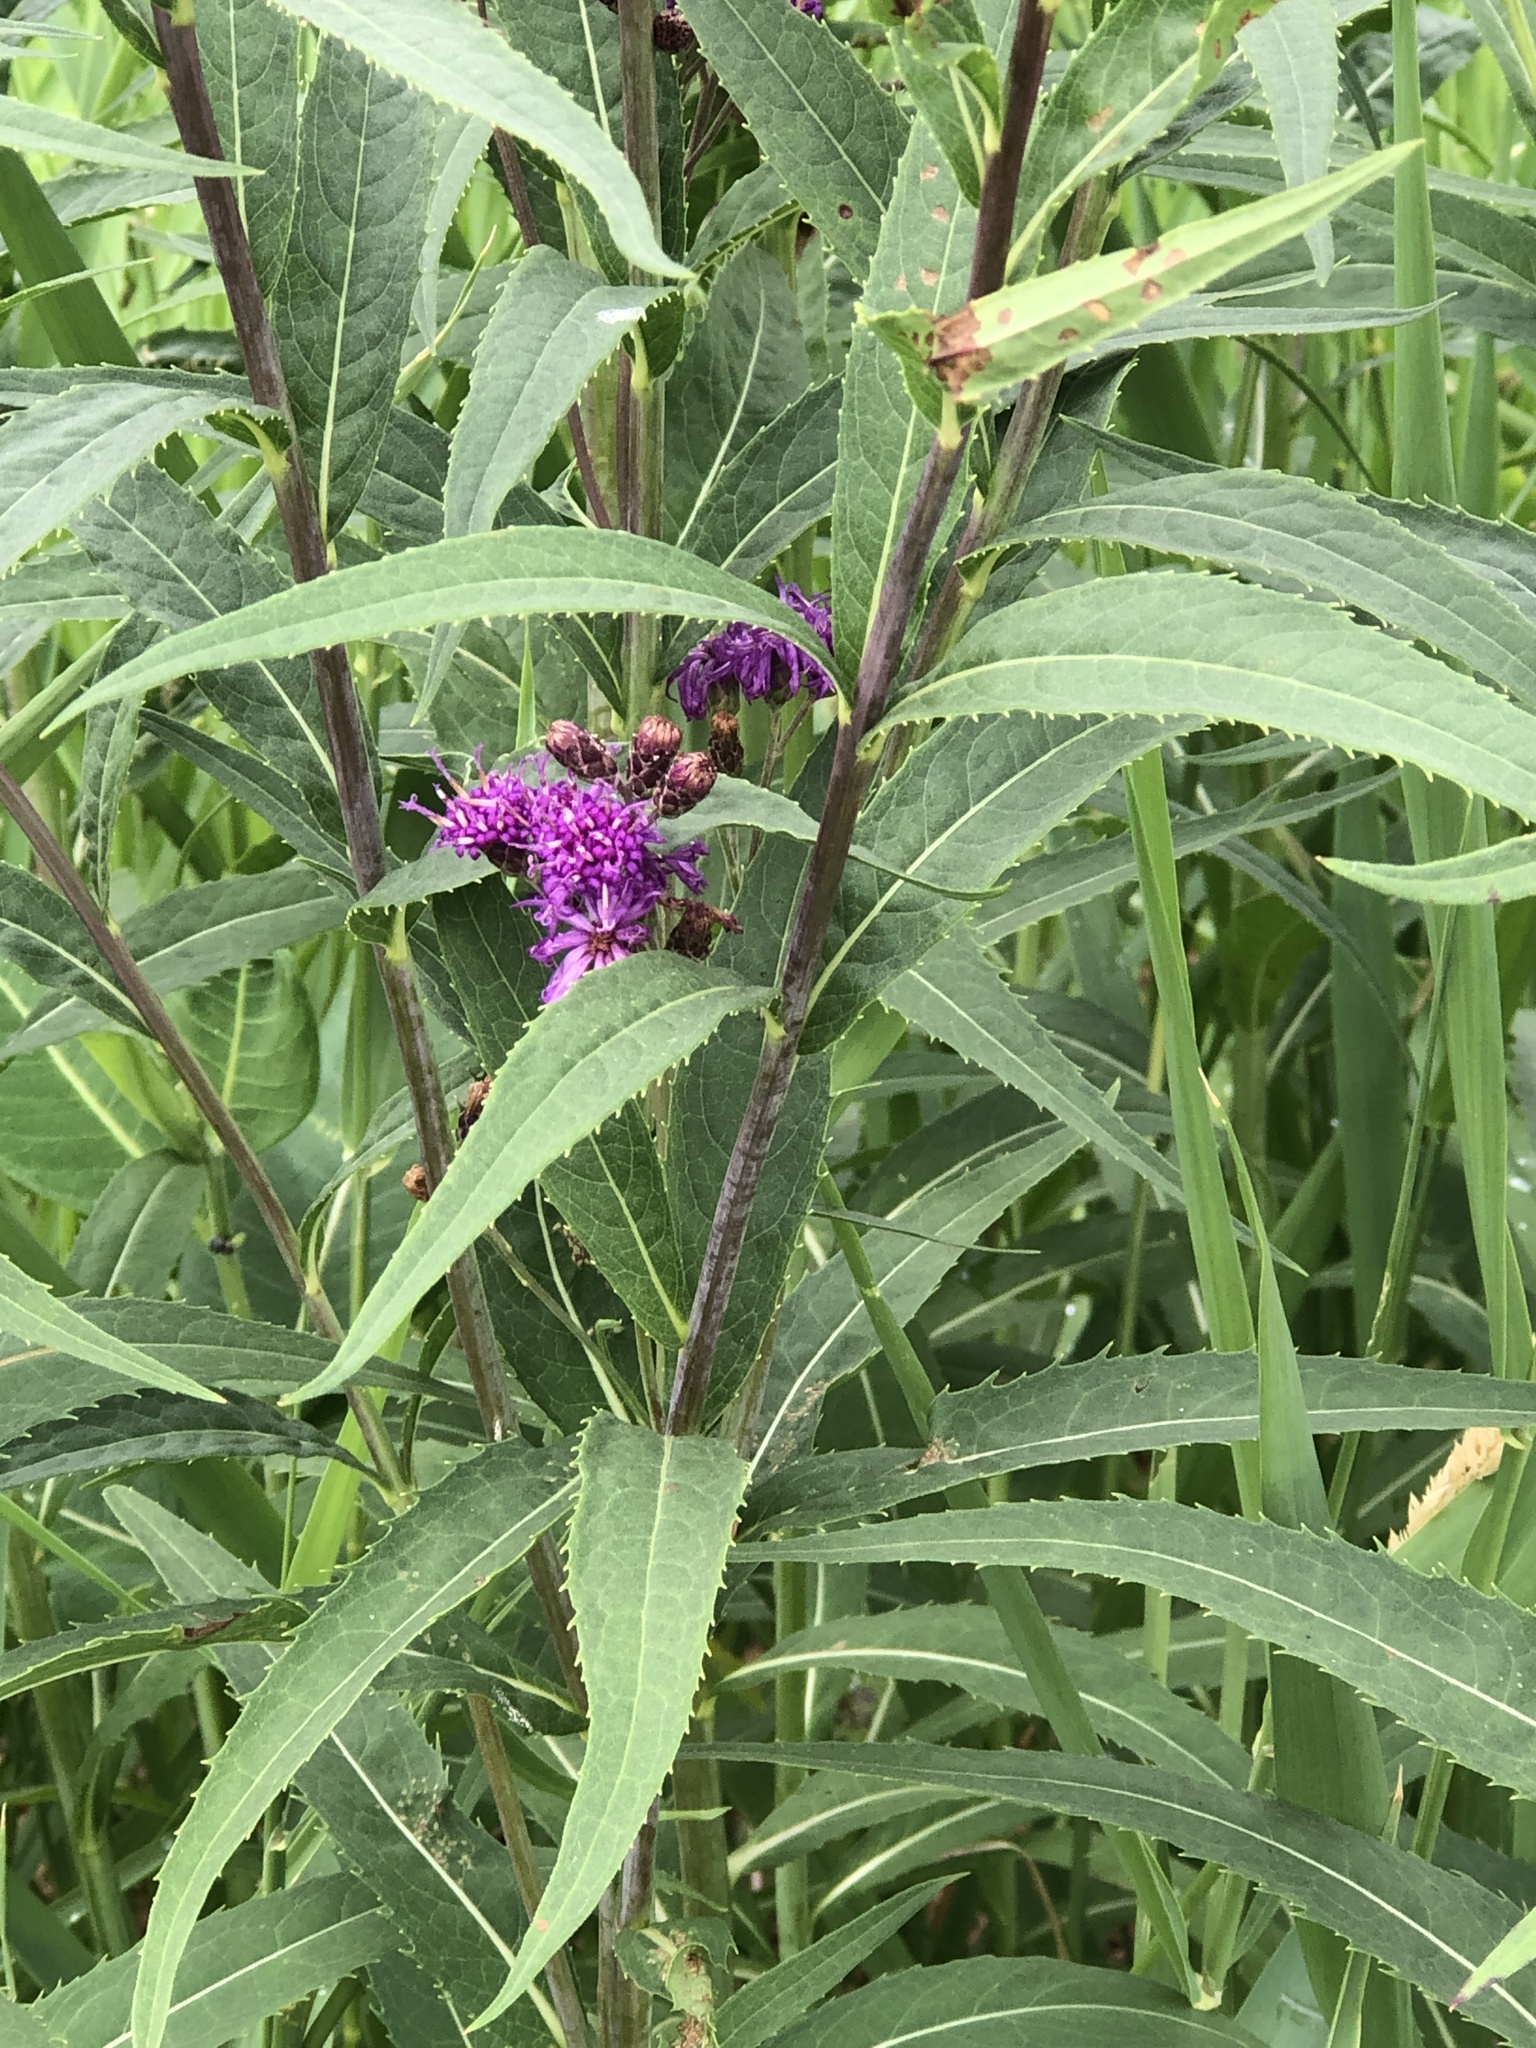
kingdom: Plantae
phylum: Tracheophyta
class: Magnoliopsida
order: Asterales
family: Asteraceae
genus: Vernonia
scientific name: Vernonia fasciculata
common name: Fascicled ironweed
